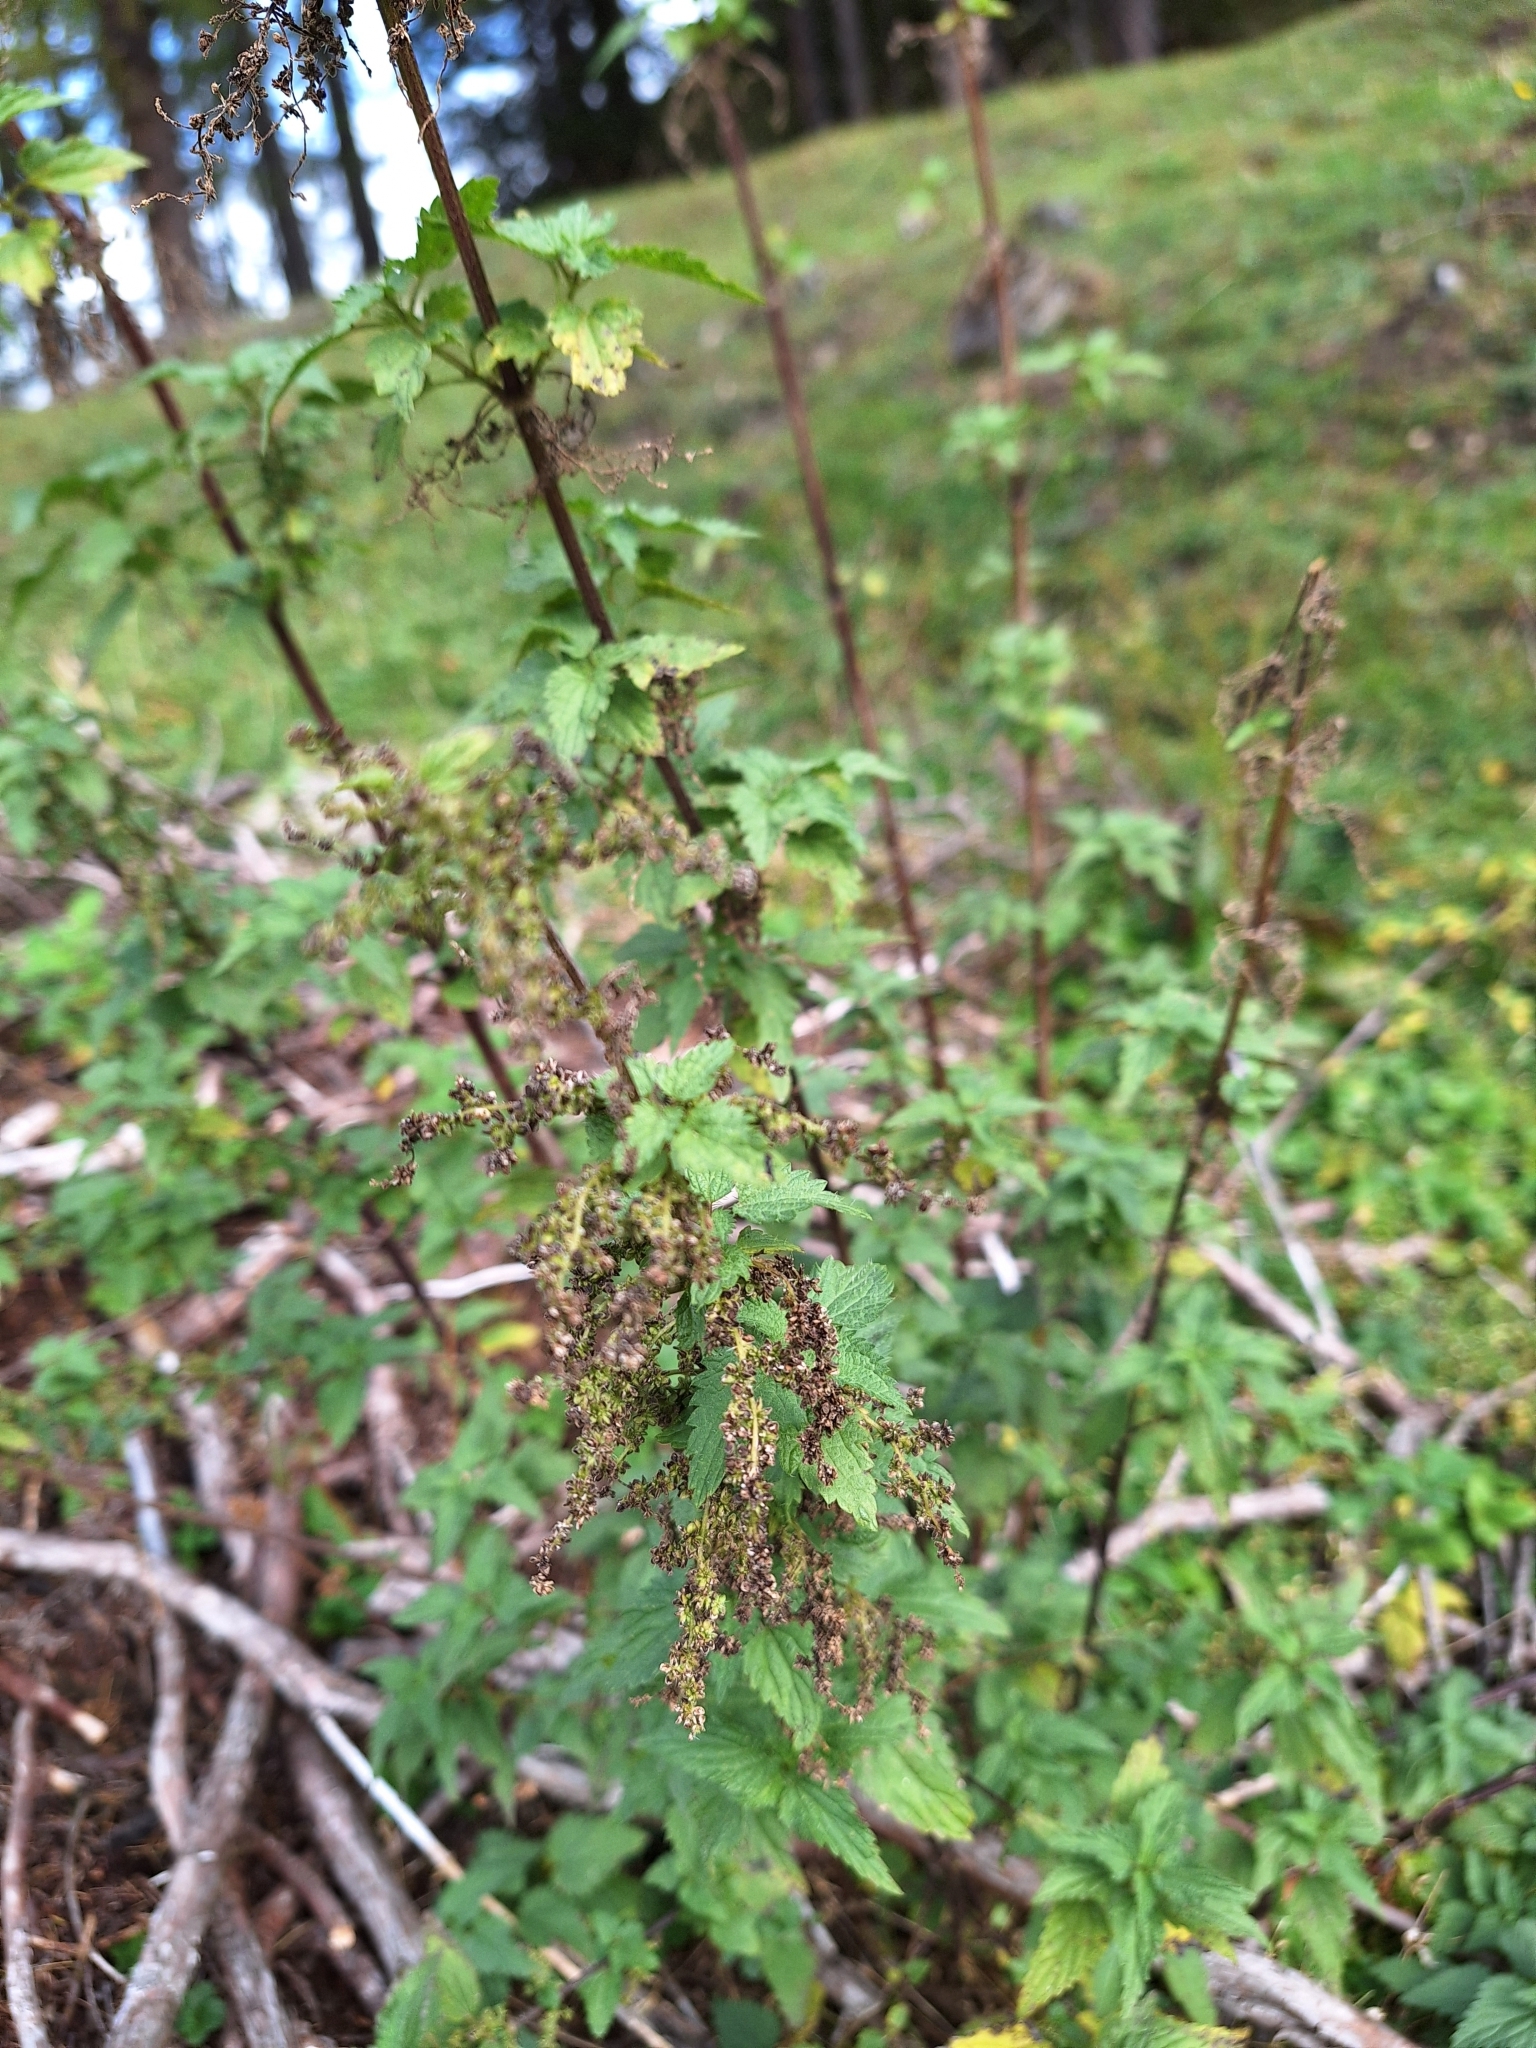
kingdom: Plantae
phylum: Tracheophyta
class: Magnoliopsida
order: Rosales
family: Urticaceae
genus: Urtica
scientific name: Urtica dioica
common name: Common nettle
